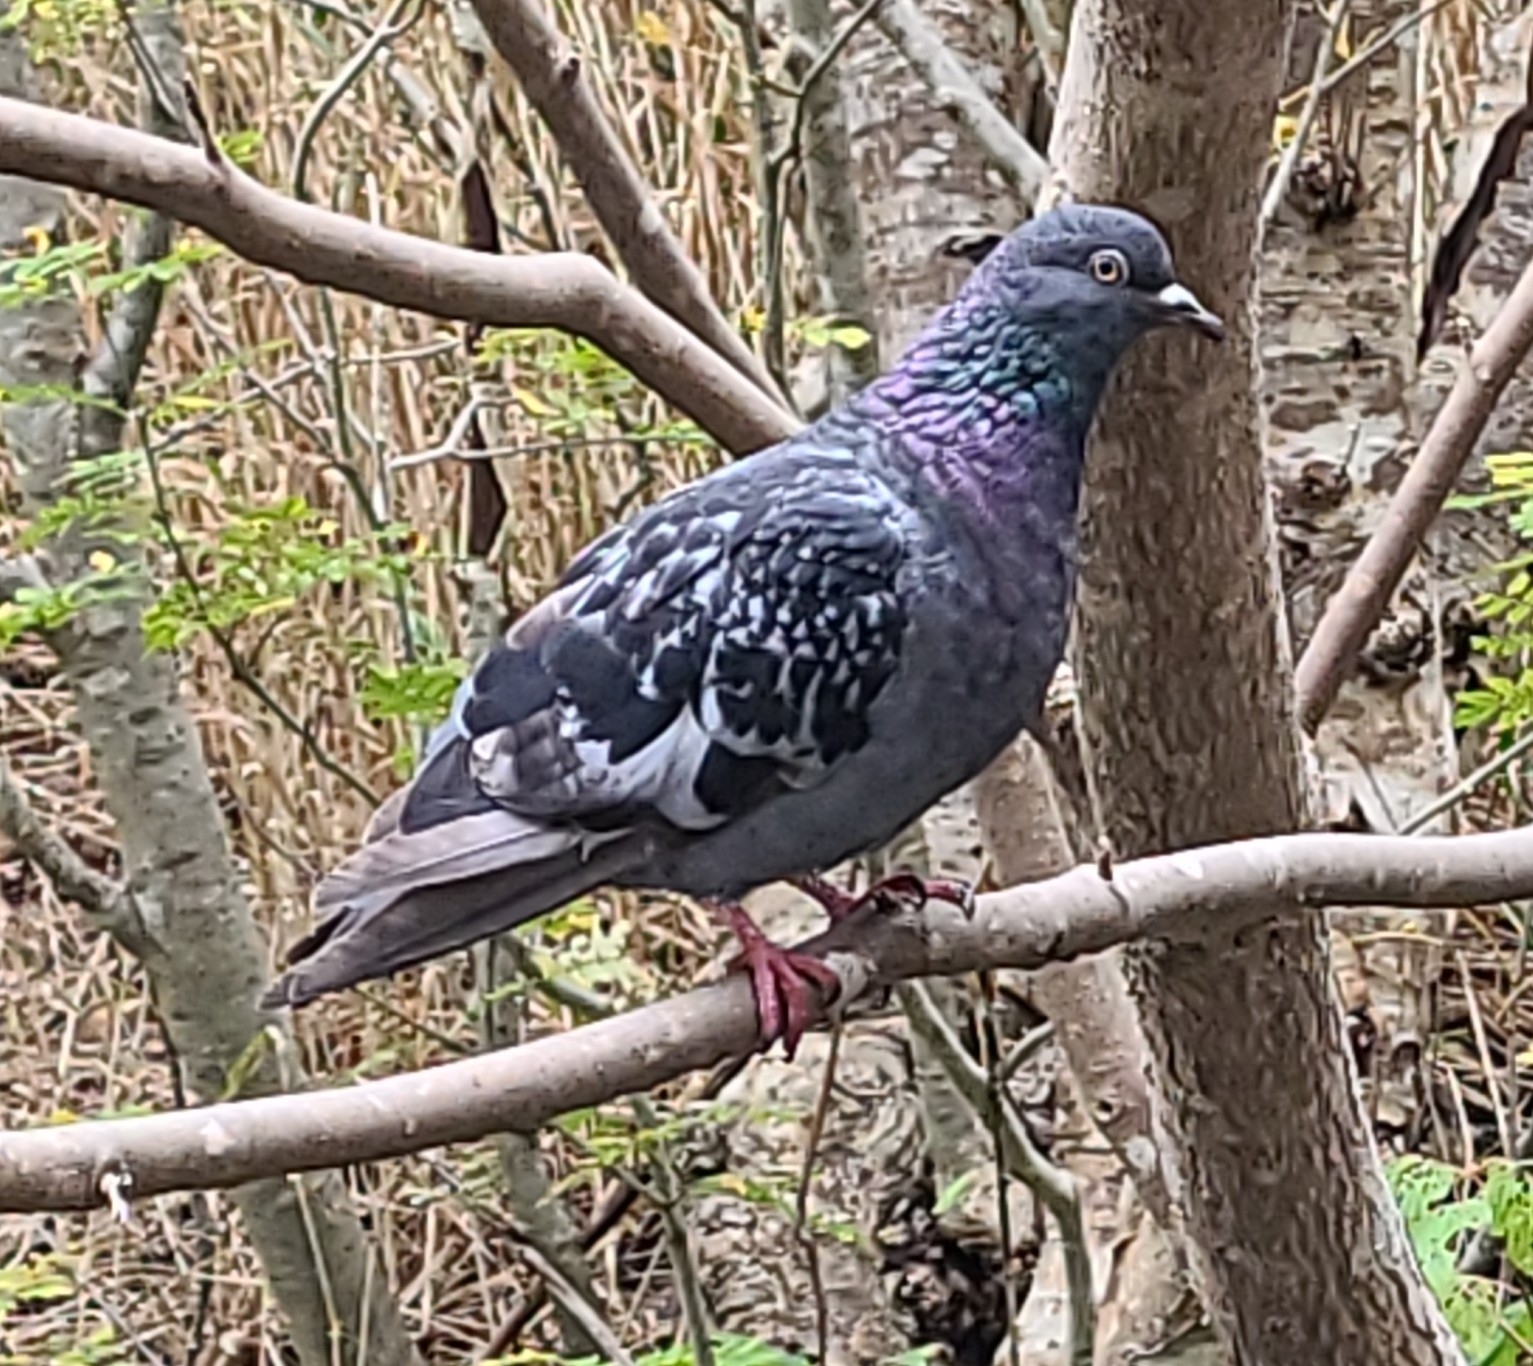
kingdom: Animalia
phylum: Chordata
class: Aves
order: Columbiformes
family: Columbidae
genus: Columba
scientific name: Columba livia
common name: Rock pigeon
